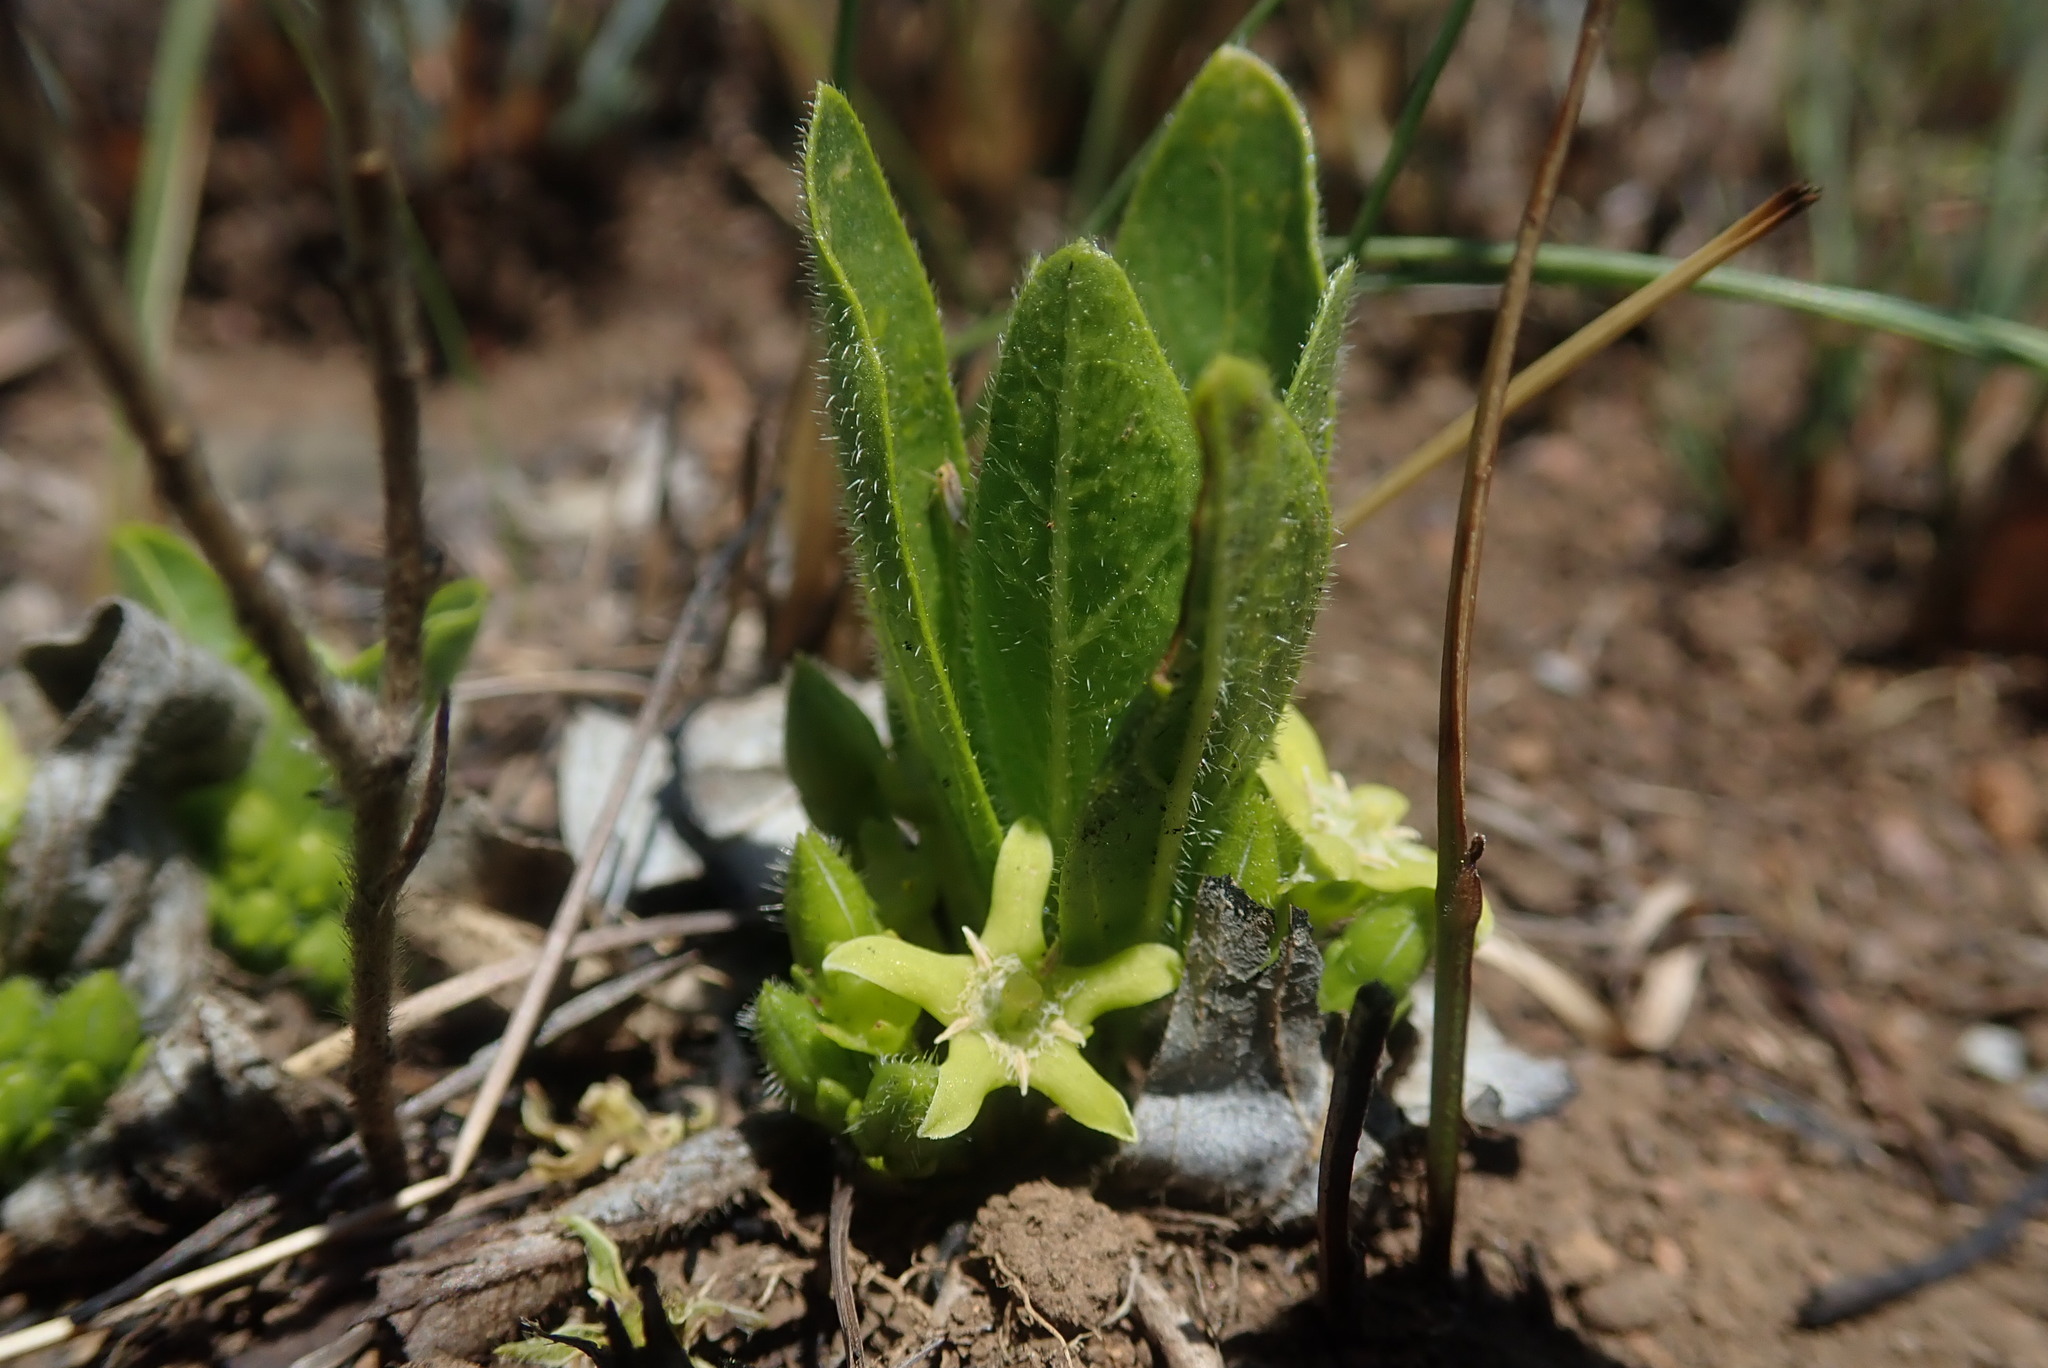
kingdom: Plantae
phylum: Tracheophyta
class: Magnoliopsida
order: Gentianales
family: Rubiaceae
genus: Bridsonia
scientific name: Bridsonia chamaedendrum
